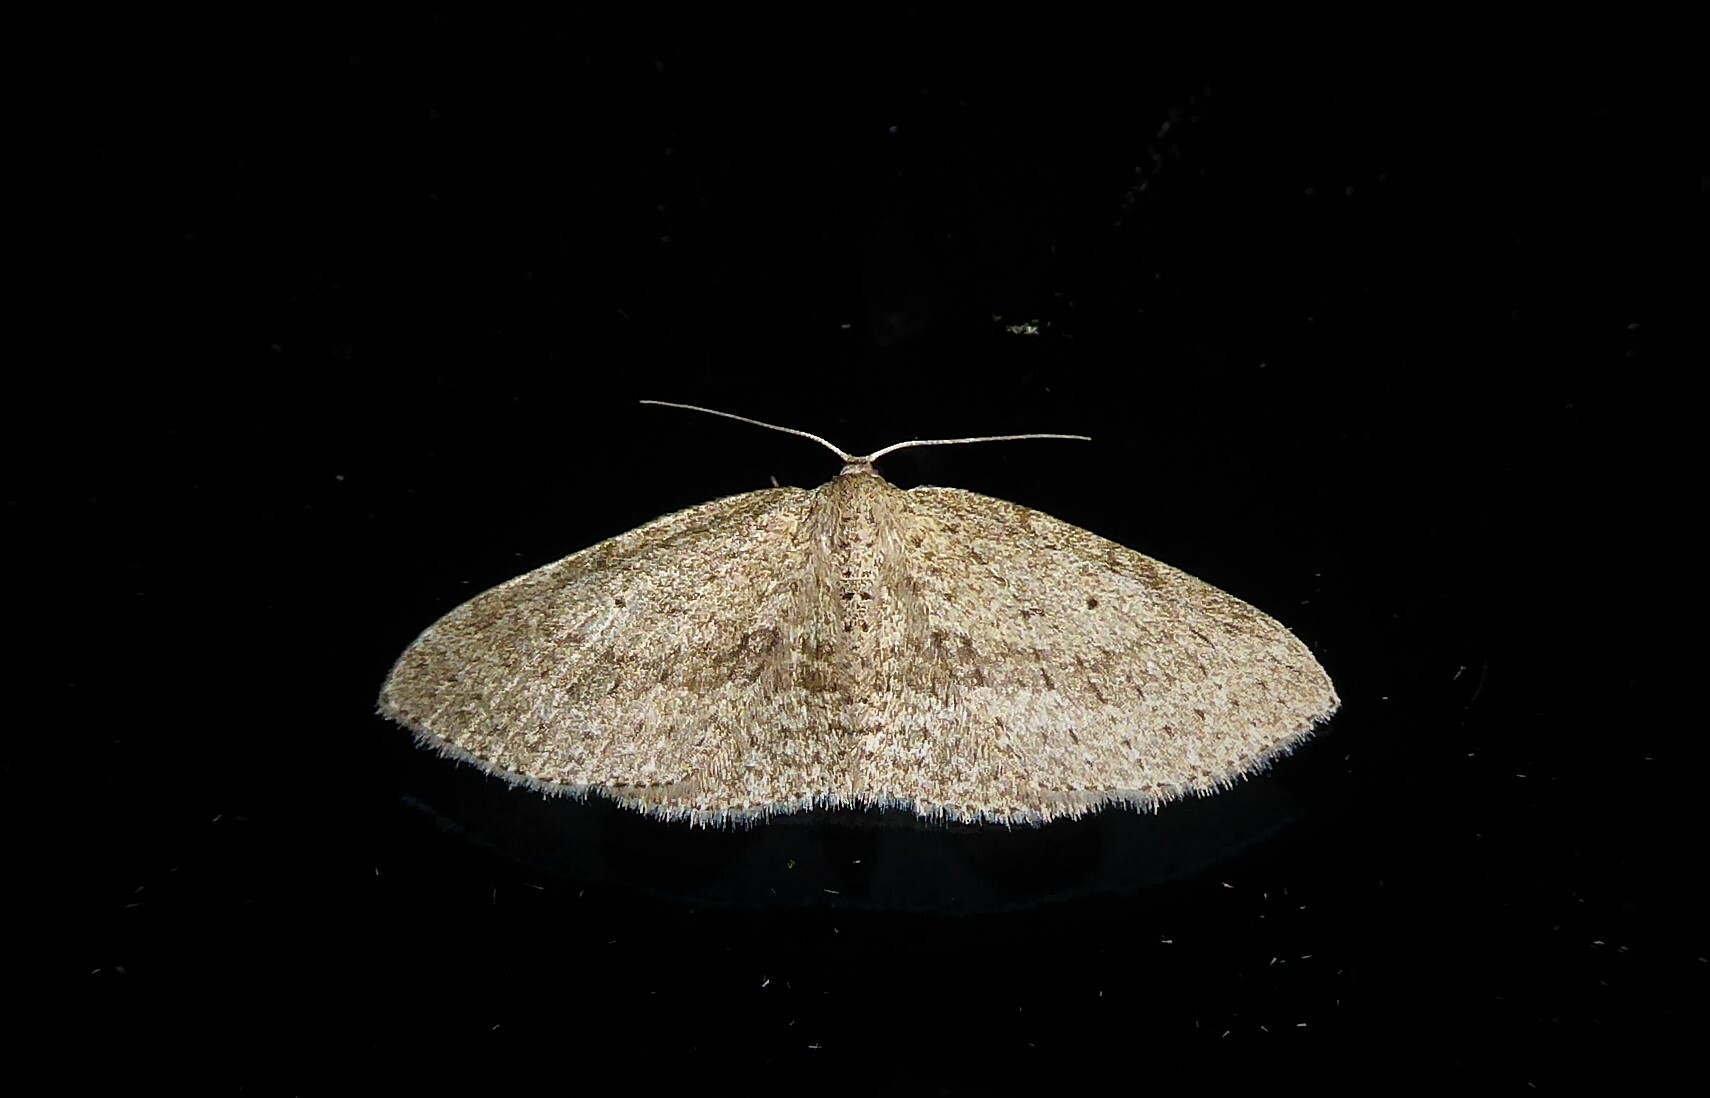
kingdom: Animalia
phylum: Arthropoda
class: Insecta
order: Lepidoptera
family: Geometridae
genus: Poecilasthena
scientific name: Poecilasthena schistaria
